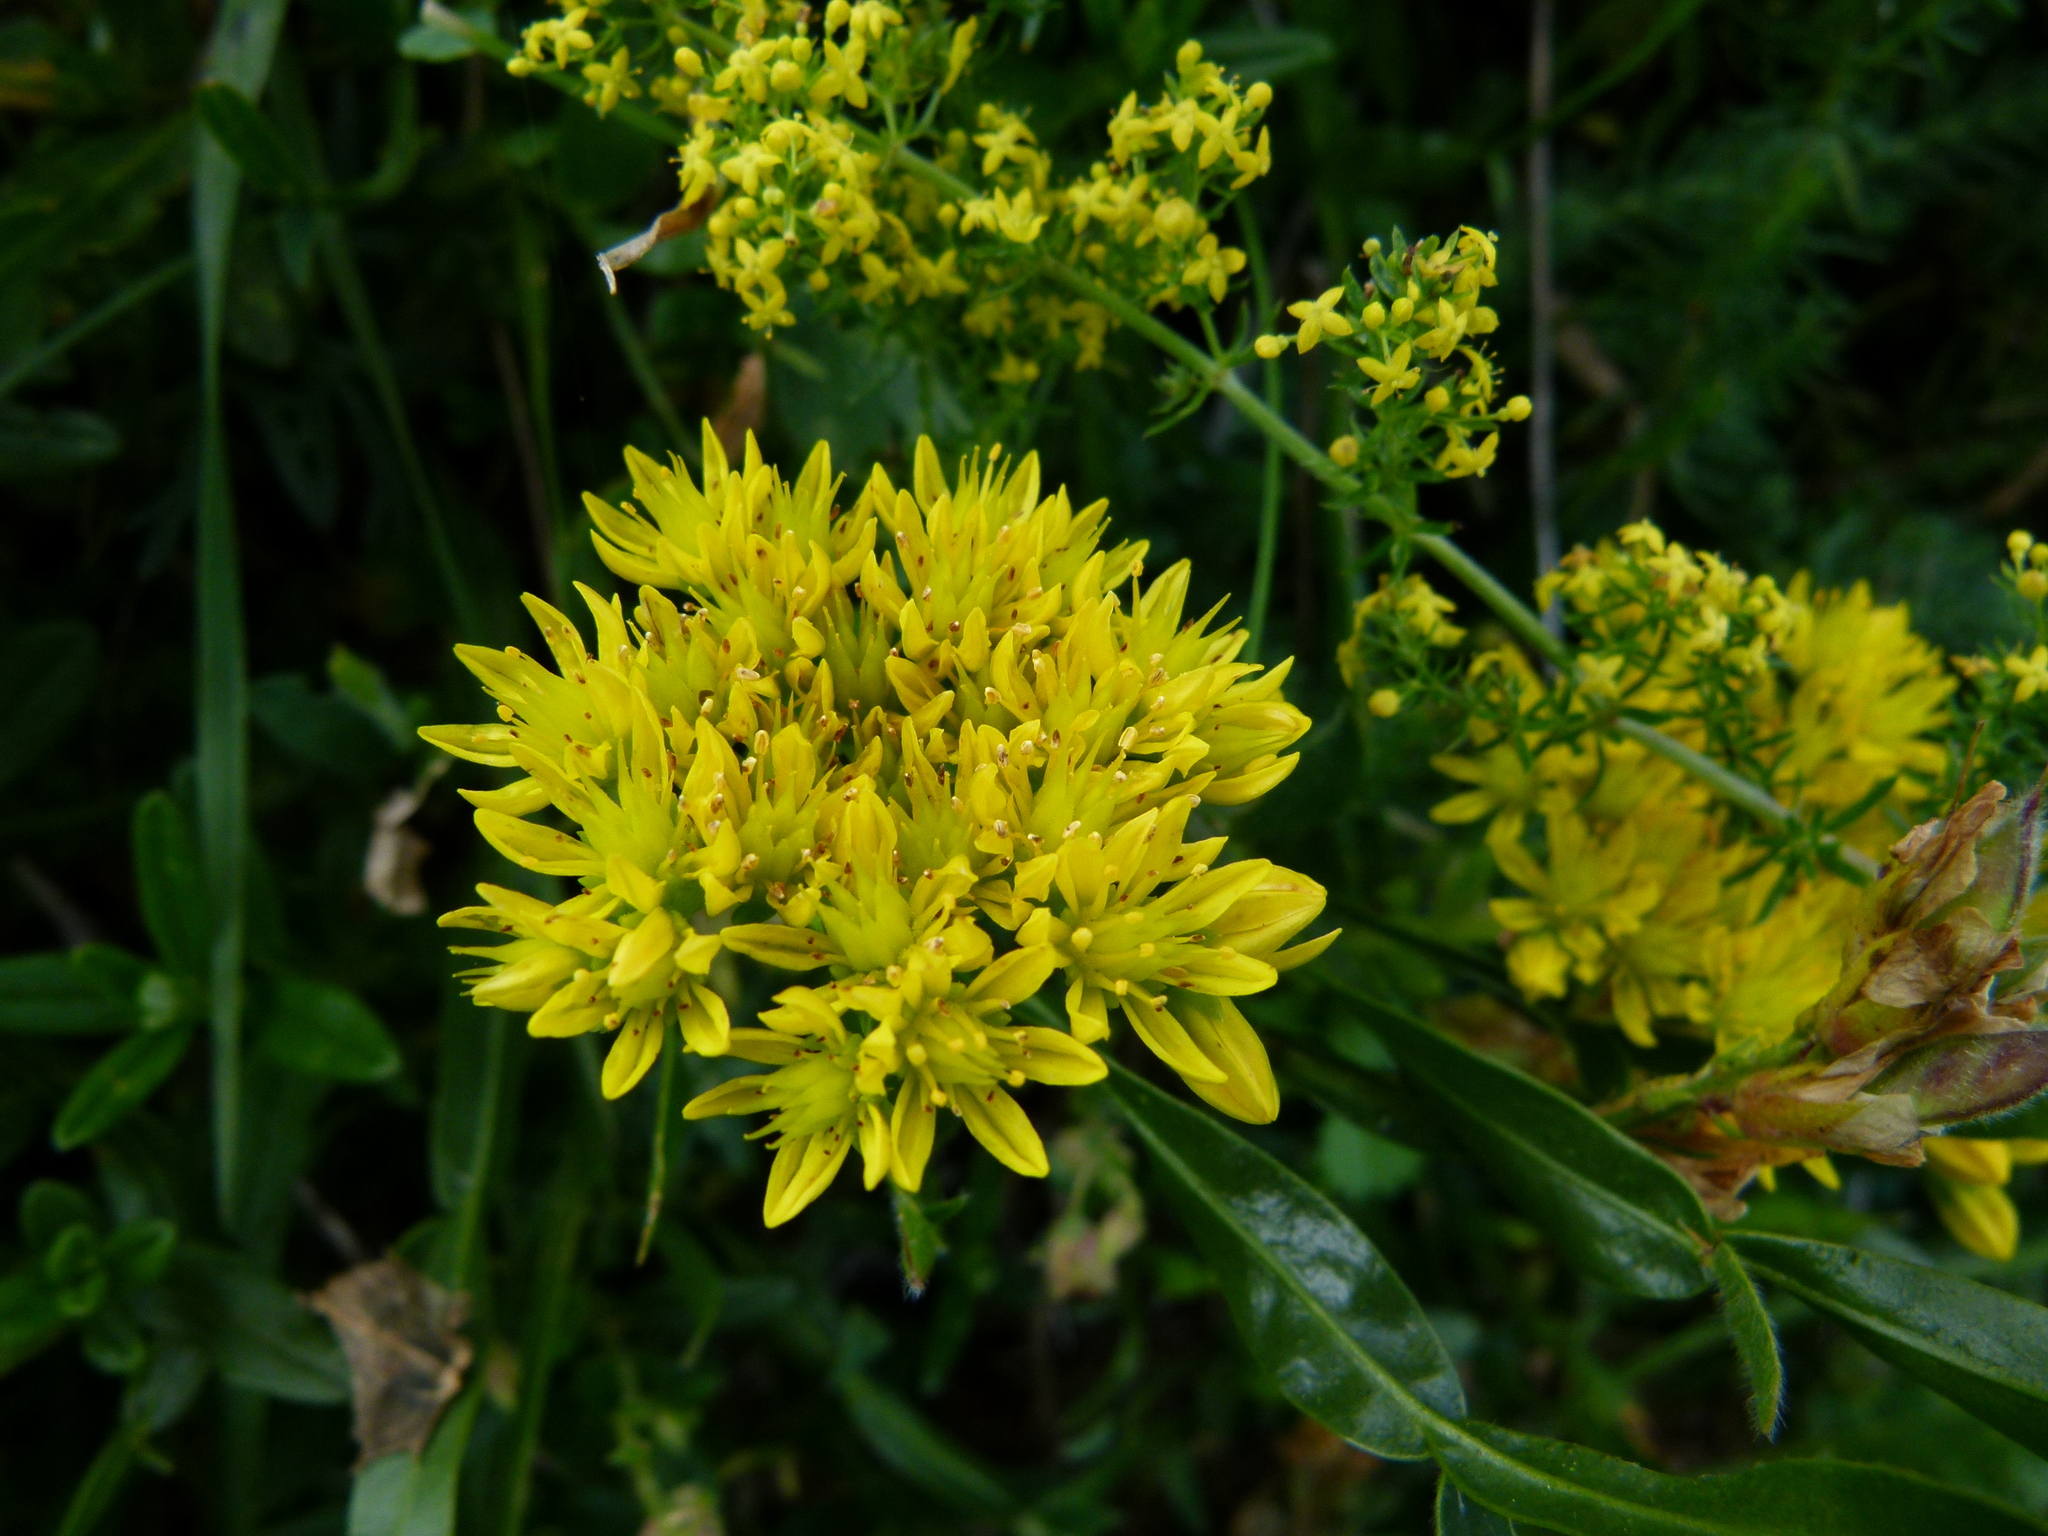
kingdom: Plantae
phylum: Tracheophyta
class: Magnoliopsida
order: Saxifragales
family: Crassulaceae
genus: Petrosedum
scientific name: Petrosedum rupestre
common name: Jenny's stonecrop
